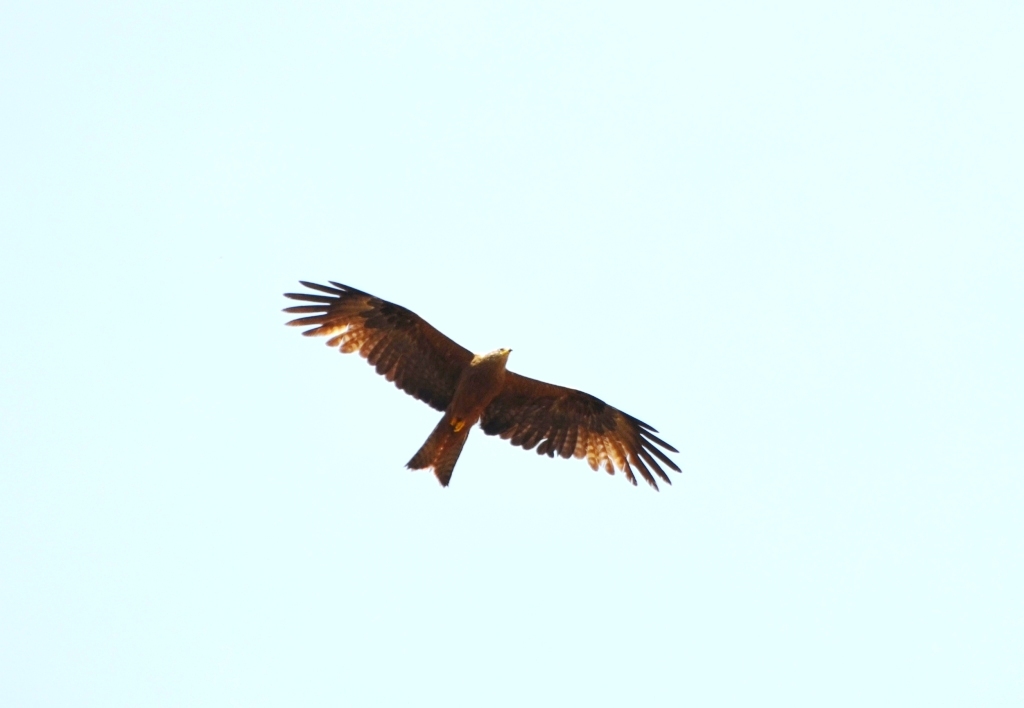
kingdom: Animalia
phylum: Chordata
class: Aves
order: Accipitriformes
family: Accipitridae
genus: Milvus
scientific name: Milvus migrans
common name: Black kite
